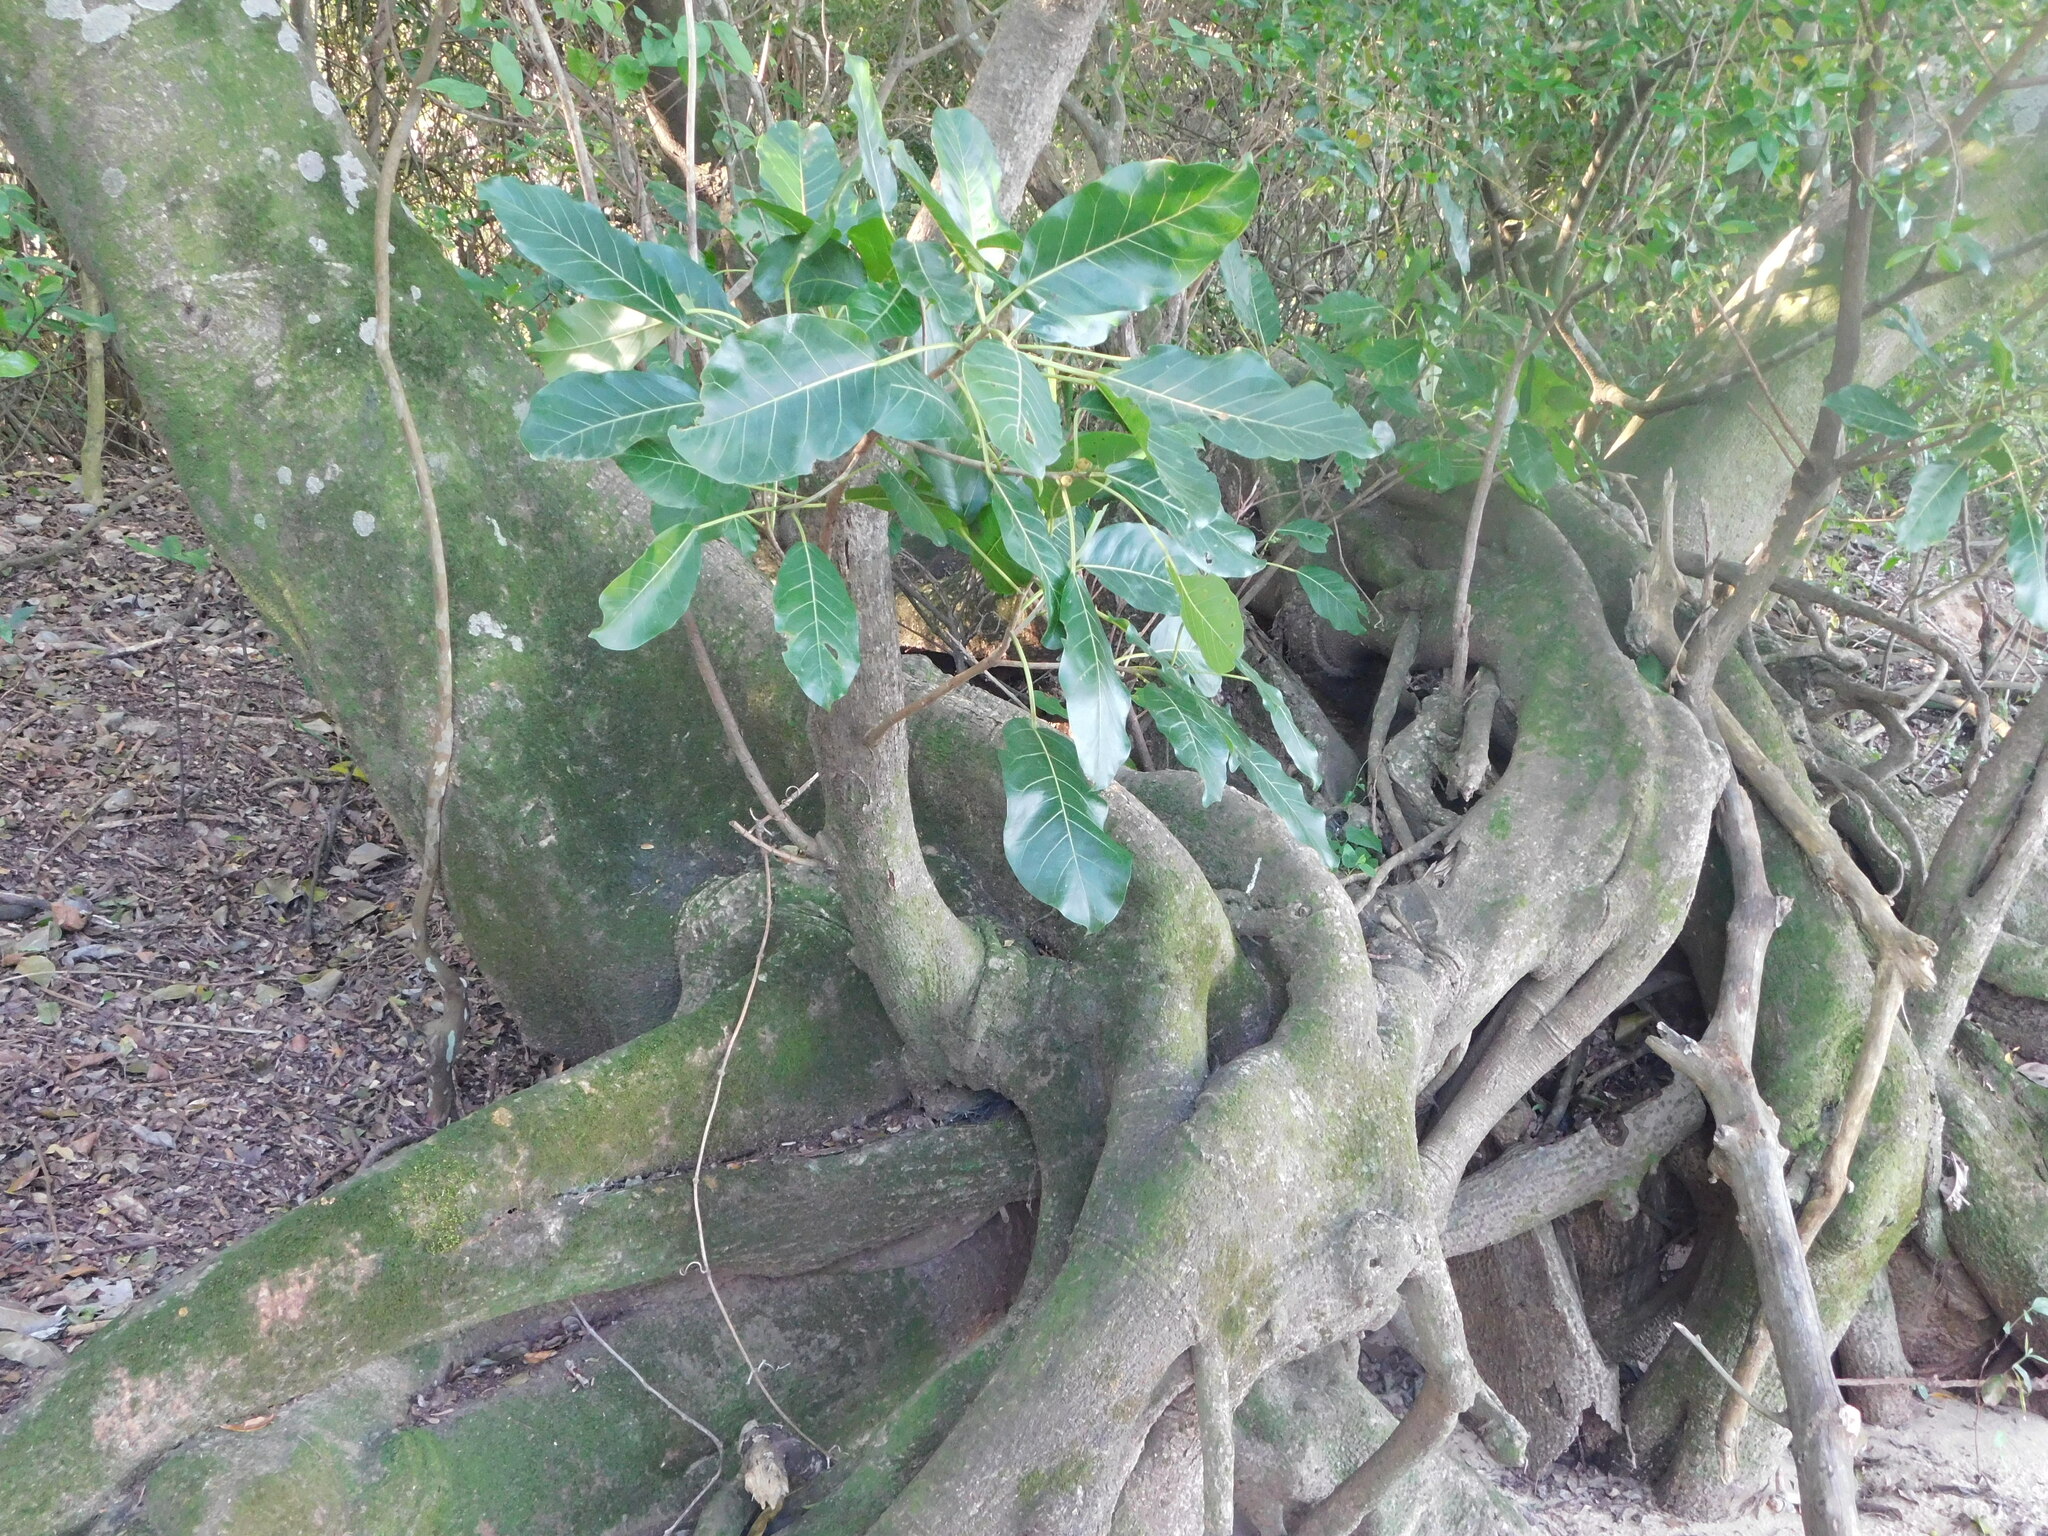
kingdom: Plantae
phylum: Tracheophyta
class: Magnoliopsida
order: Rosales
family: Moraceae
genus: Ficus
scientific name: Ficus luschnathiana
